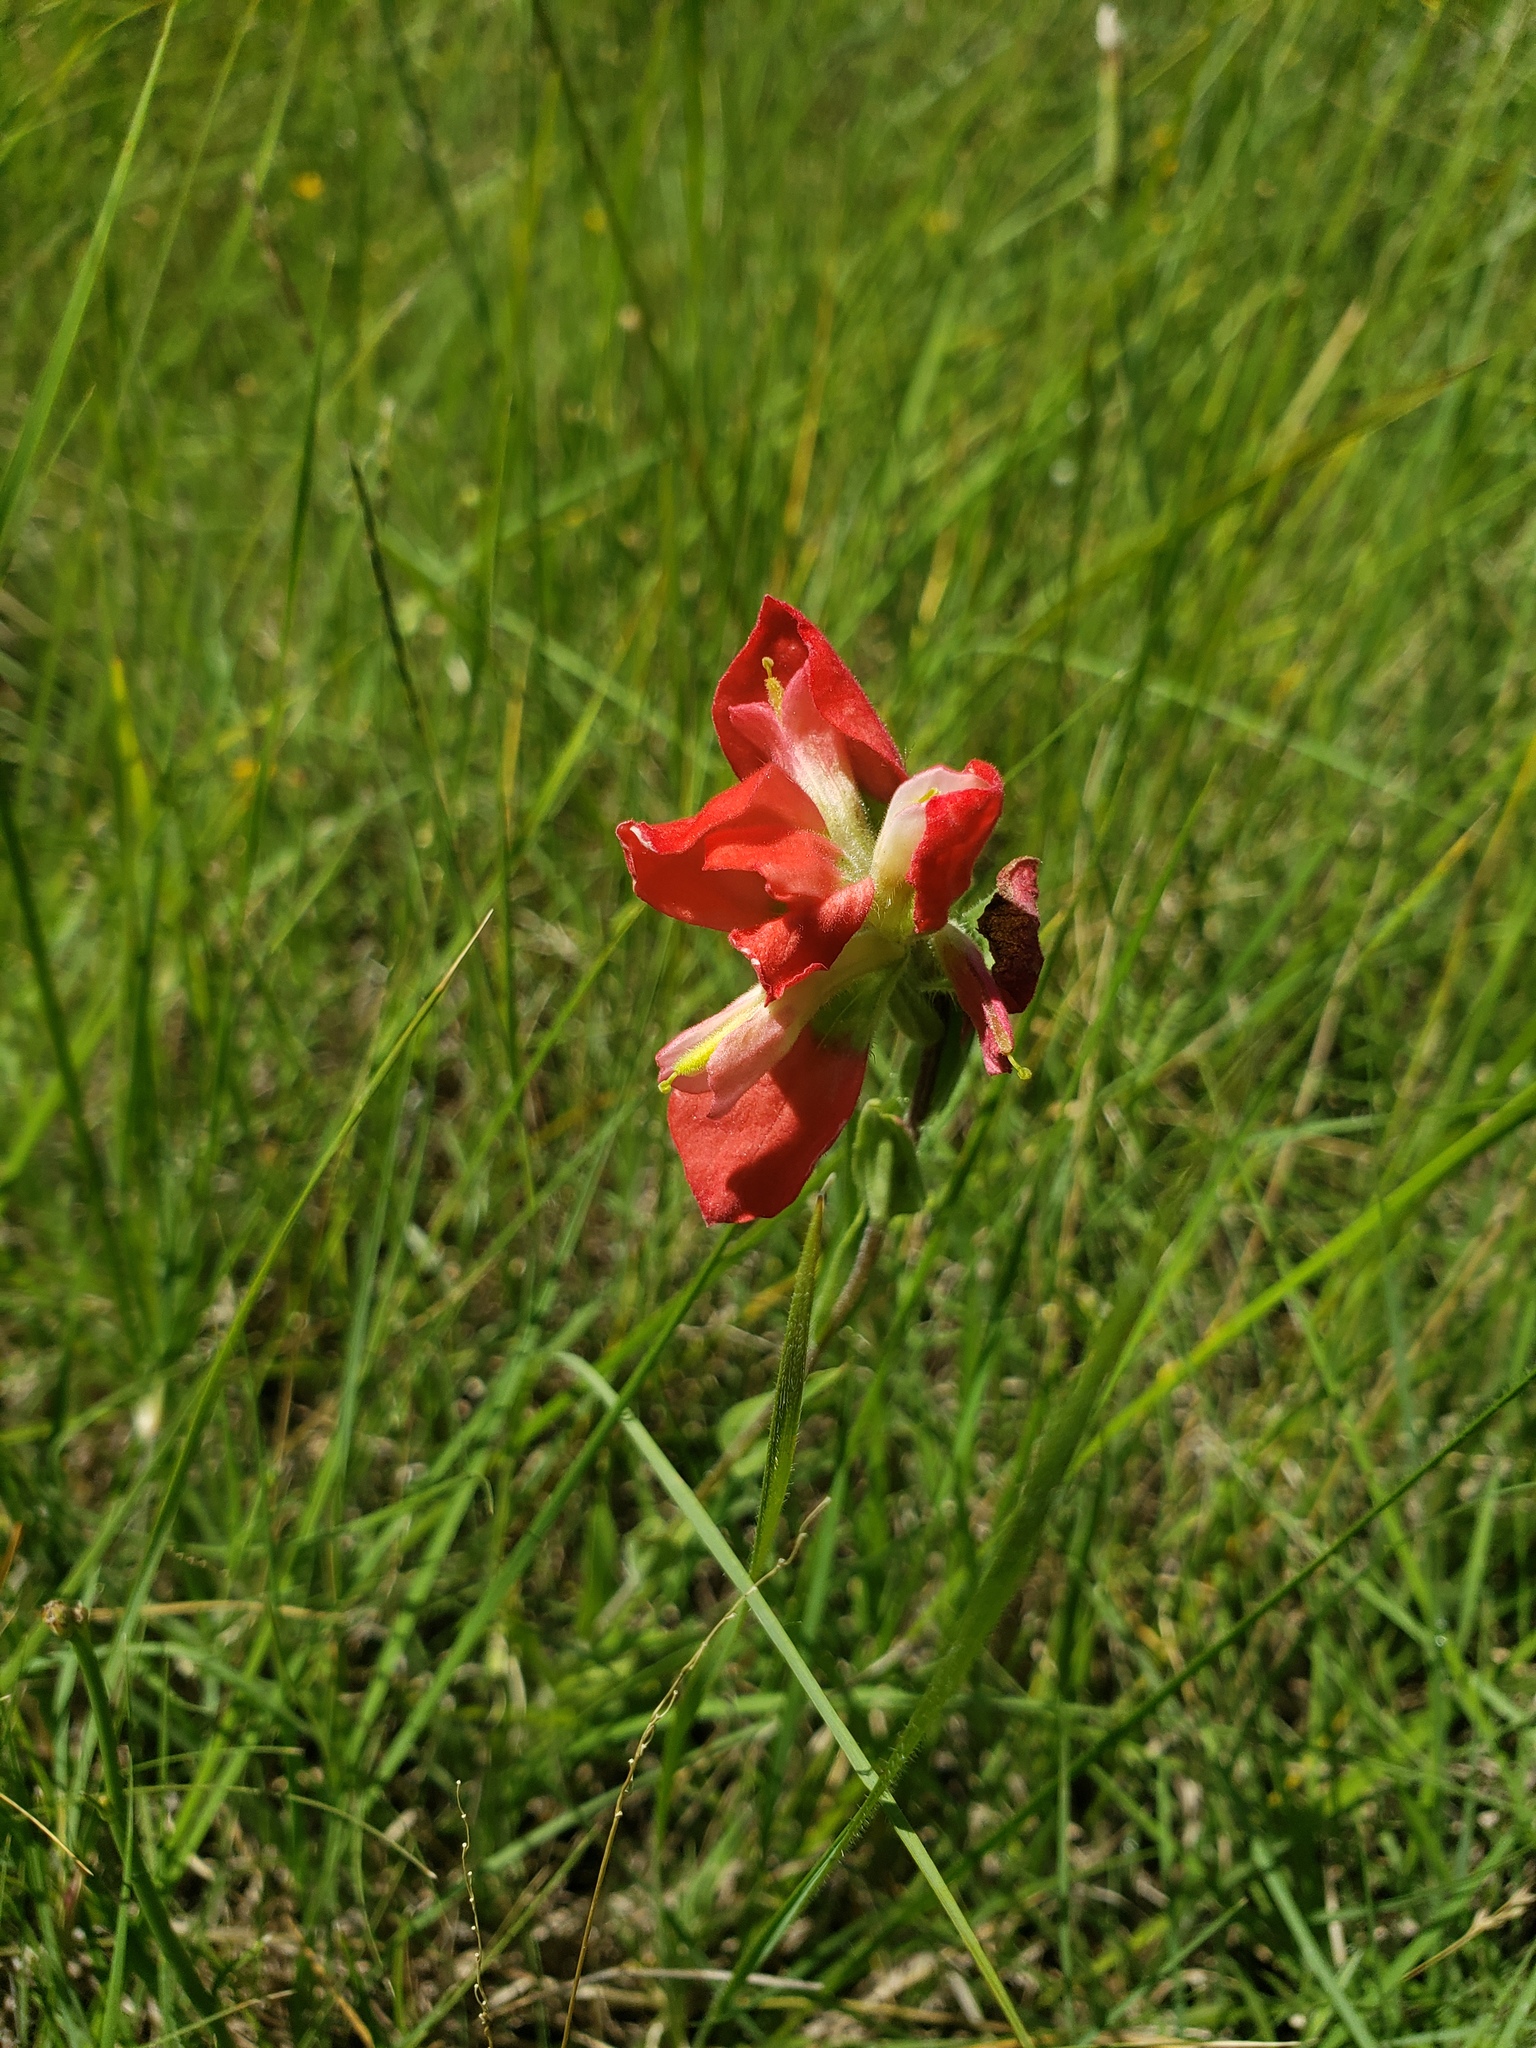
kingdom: Plantae
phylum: Tracheophyta
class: Magnoliopsida
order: Lamiales
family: Orobanchaceae
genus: Castilleja
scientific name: Castilleja indivisa
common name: Texas paintbrush
